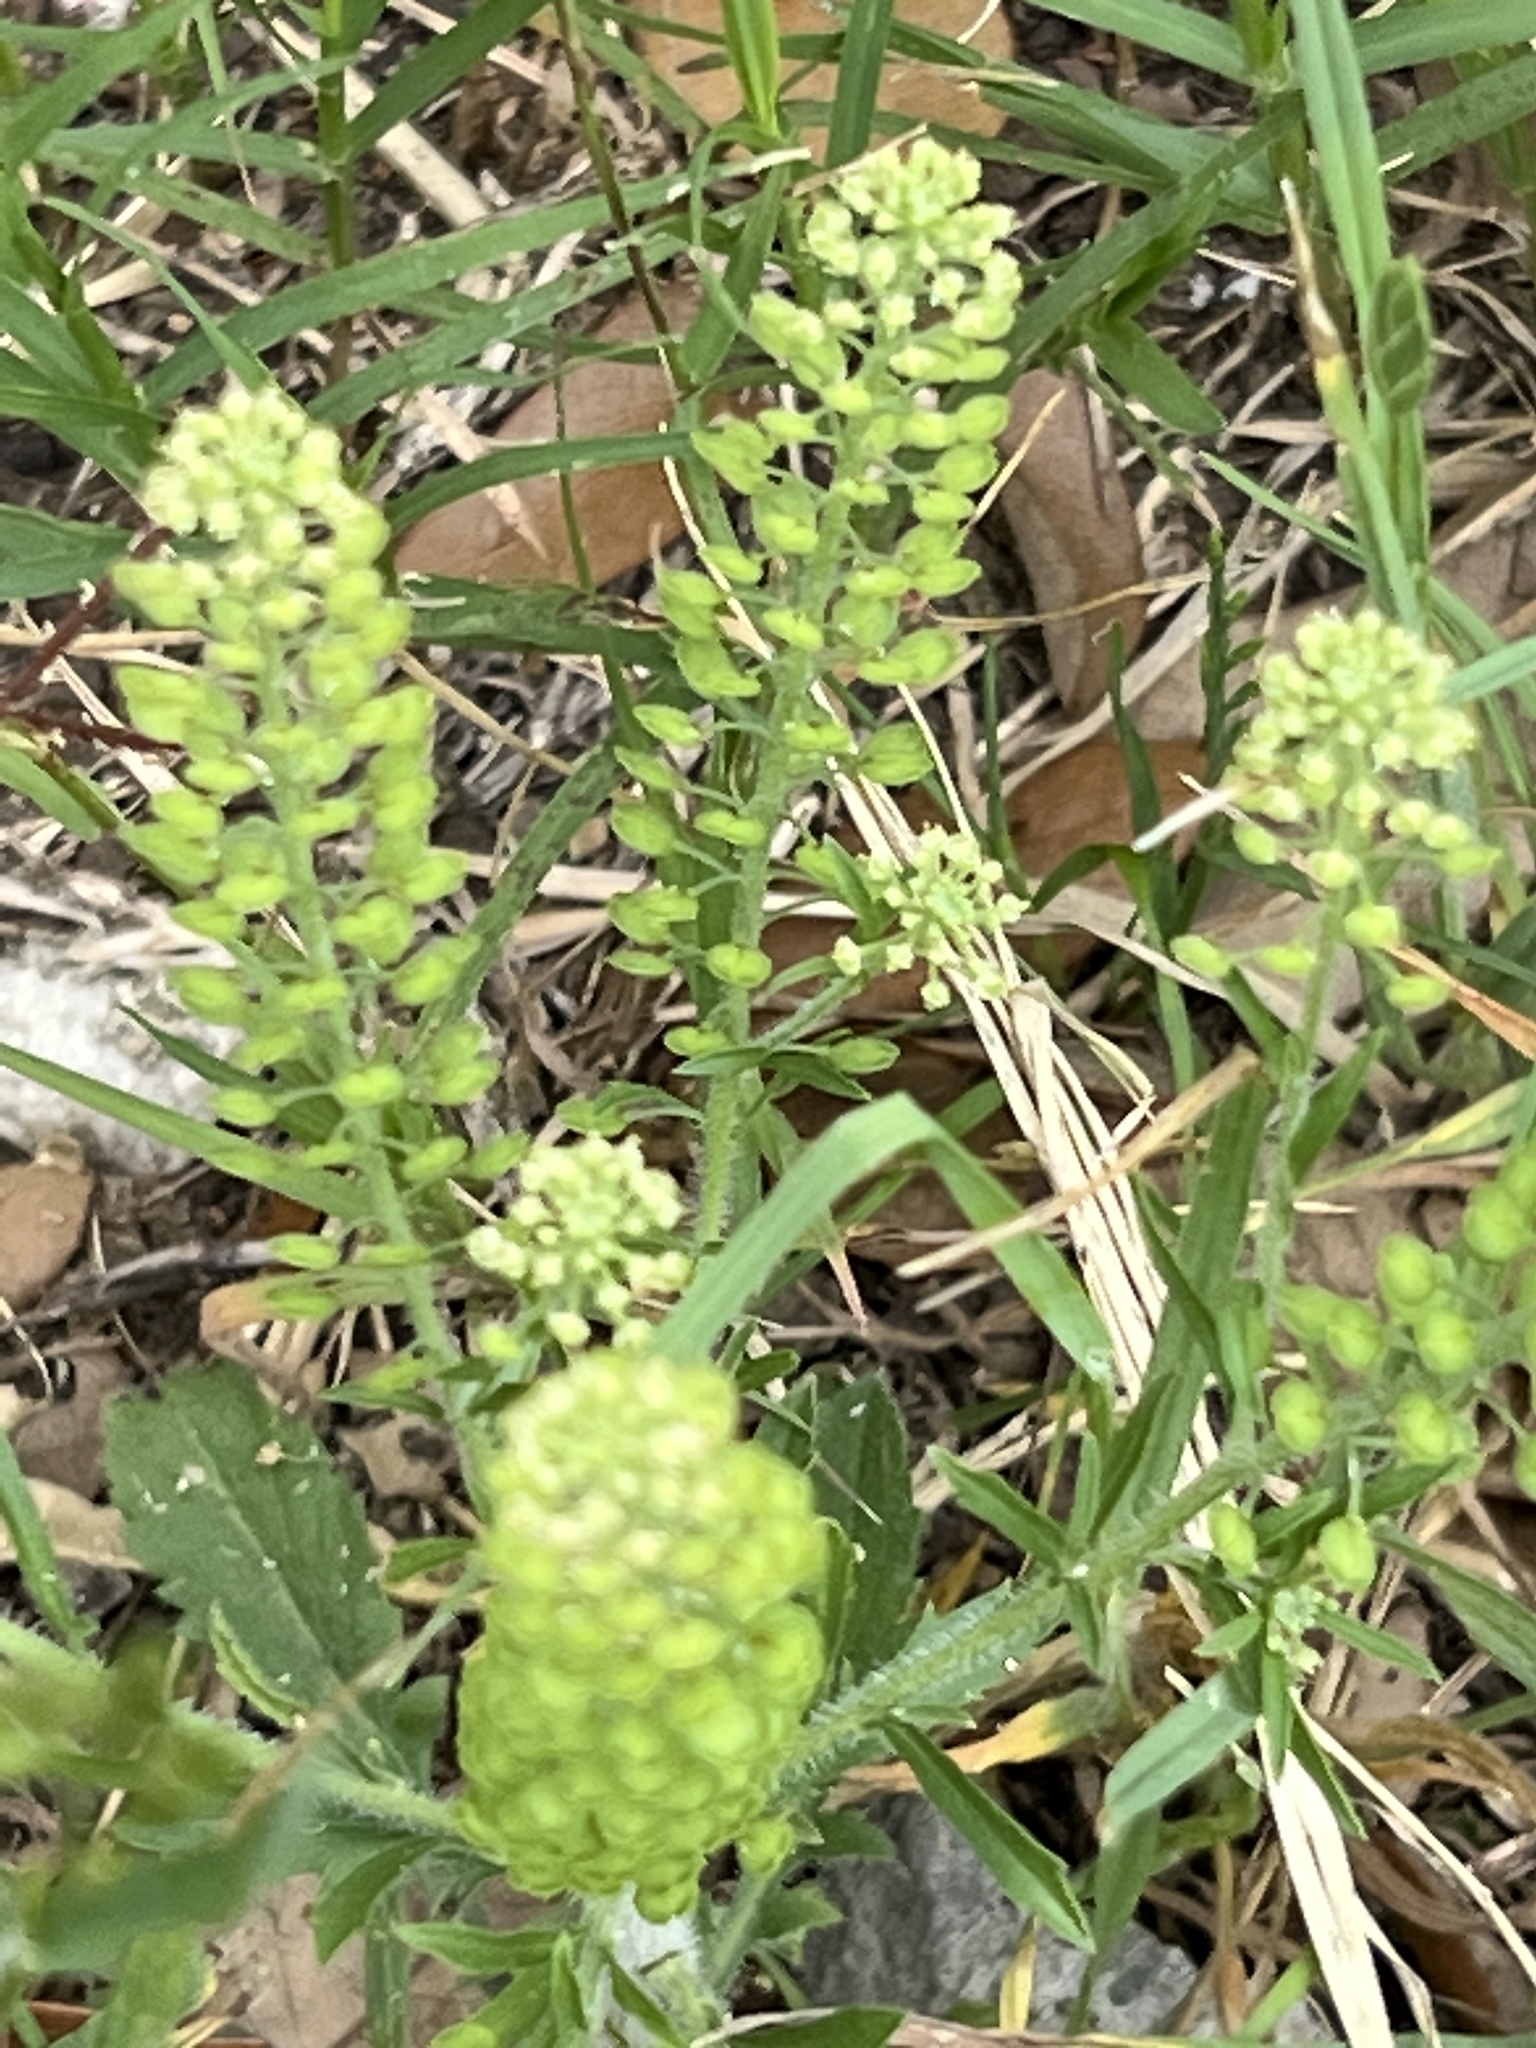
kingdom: Plantae
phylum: Tracheophyta
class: Magnoliopsida
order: Brassicales
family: Brassicaceae
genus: Lepidium
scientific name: Lepidium virginicum
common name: Least pepperwort
